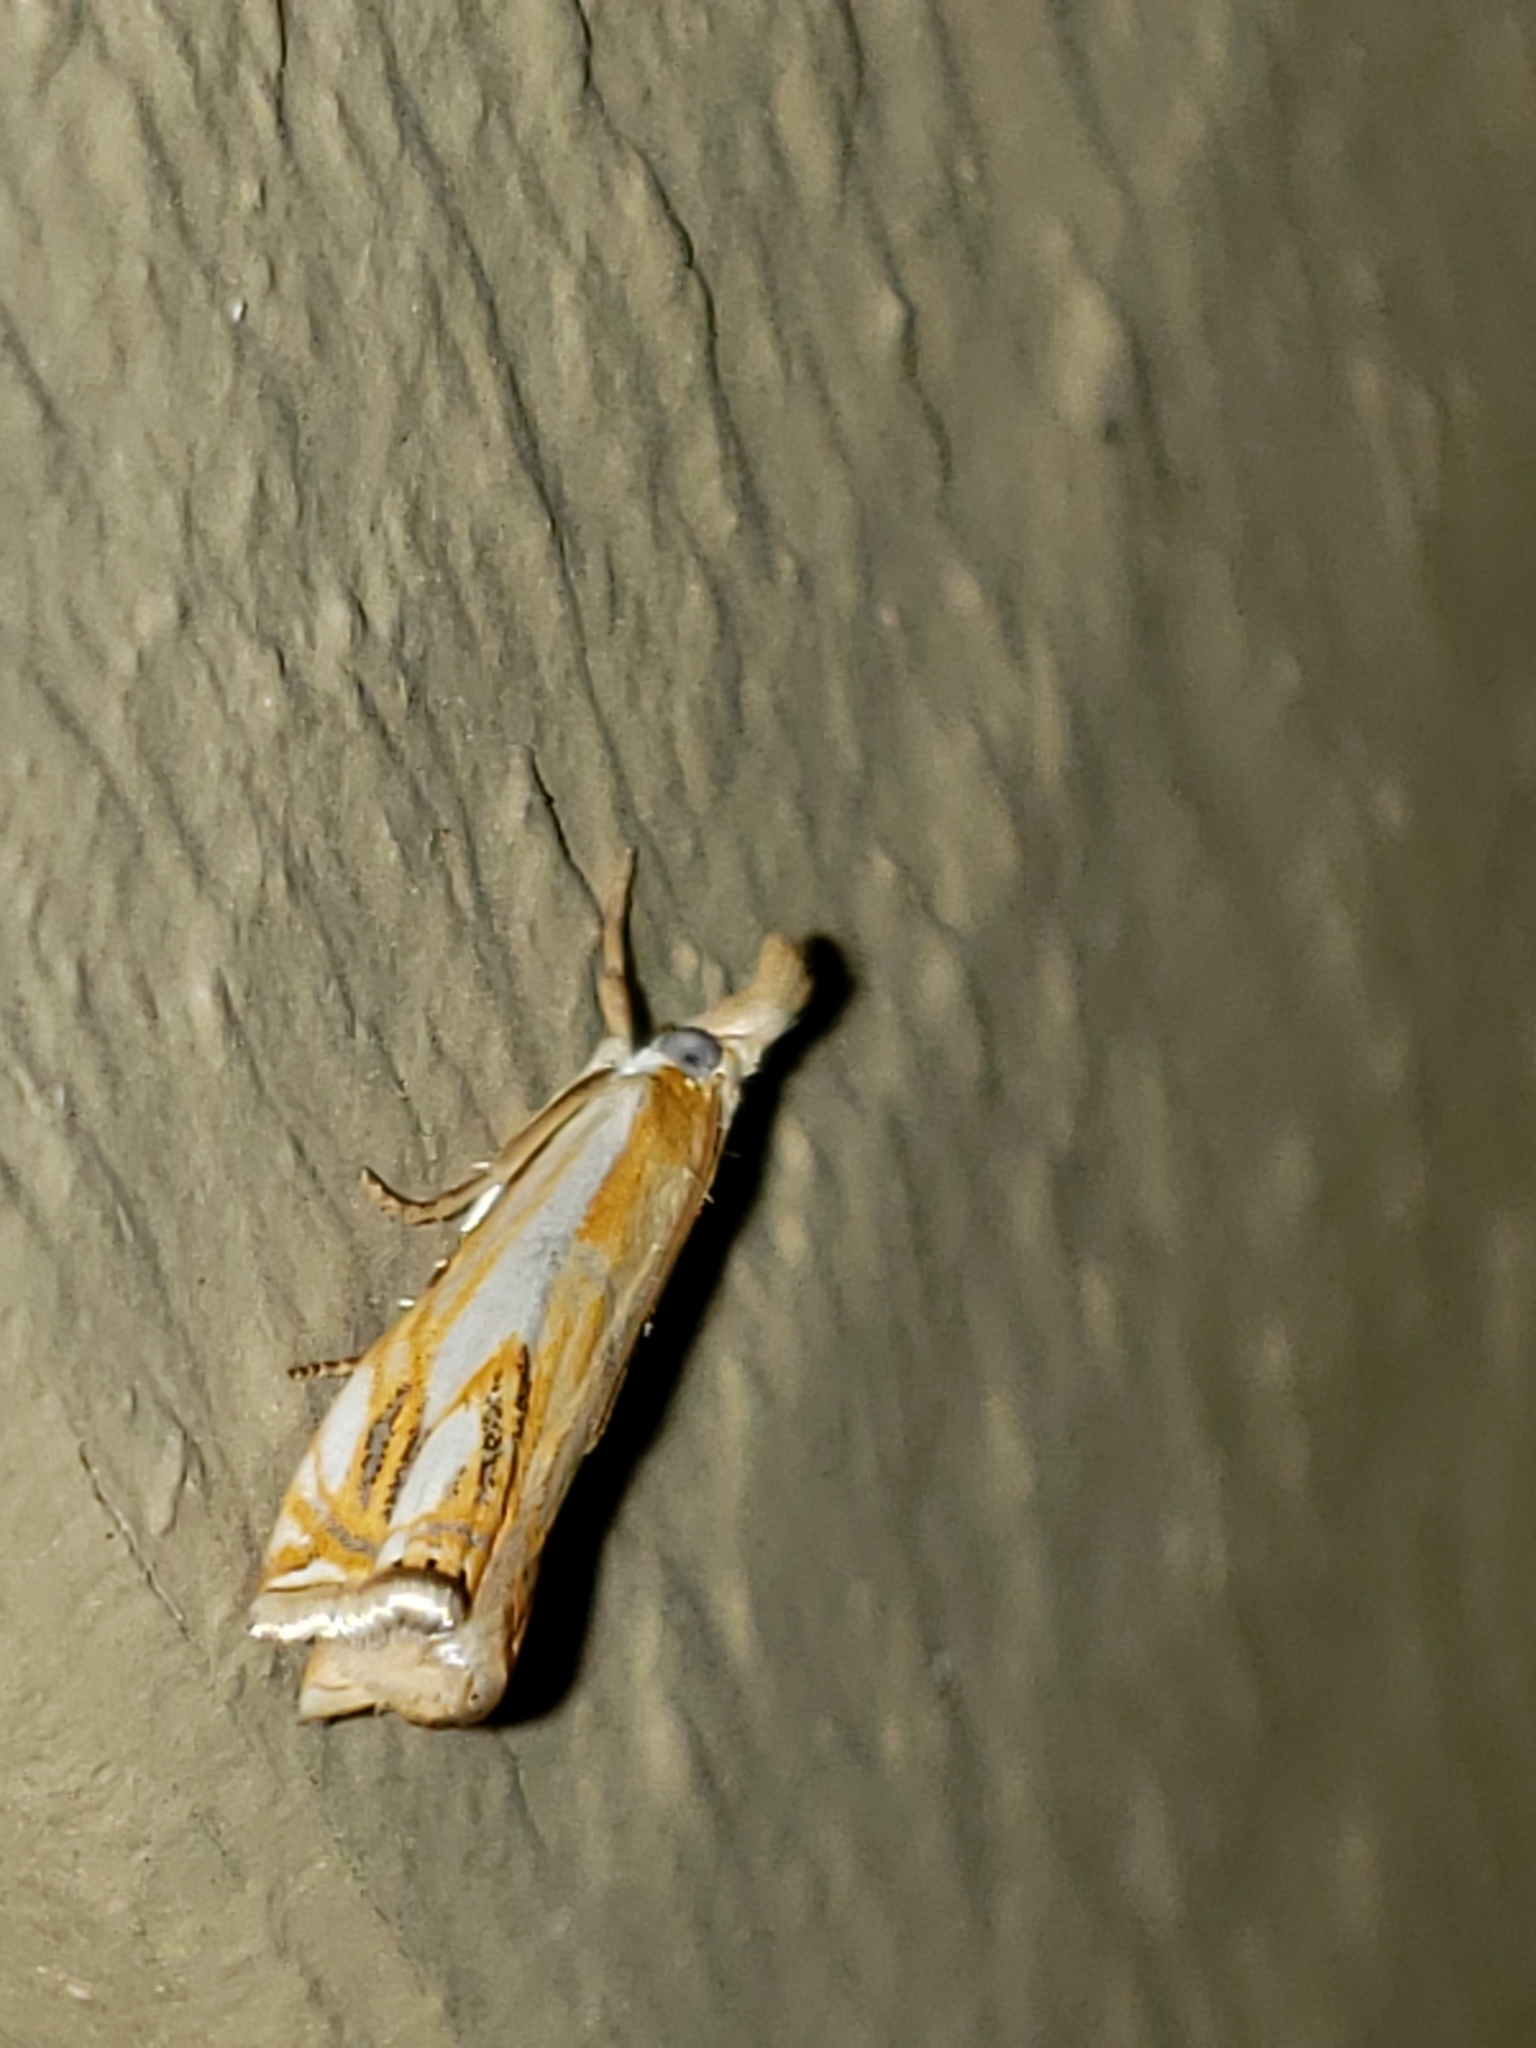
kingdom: Animalia
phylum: Arthropoda
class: Insecta
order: Lepidoptera
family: Crambidae
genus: Crambus
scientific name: Crambus agitatellus
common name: Double-banded grass-veneer
